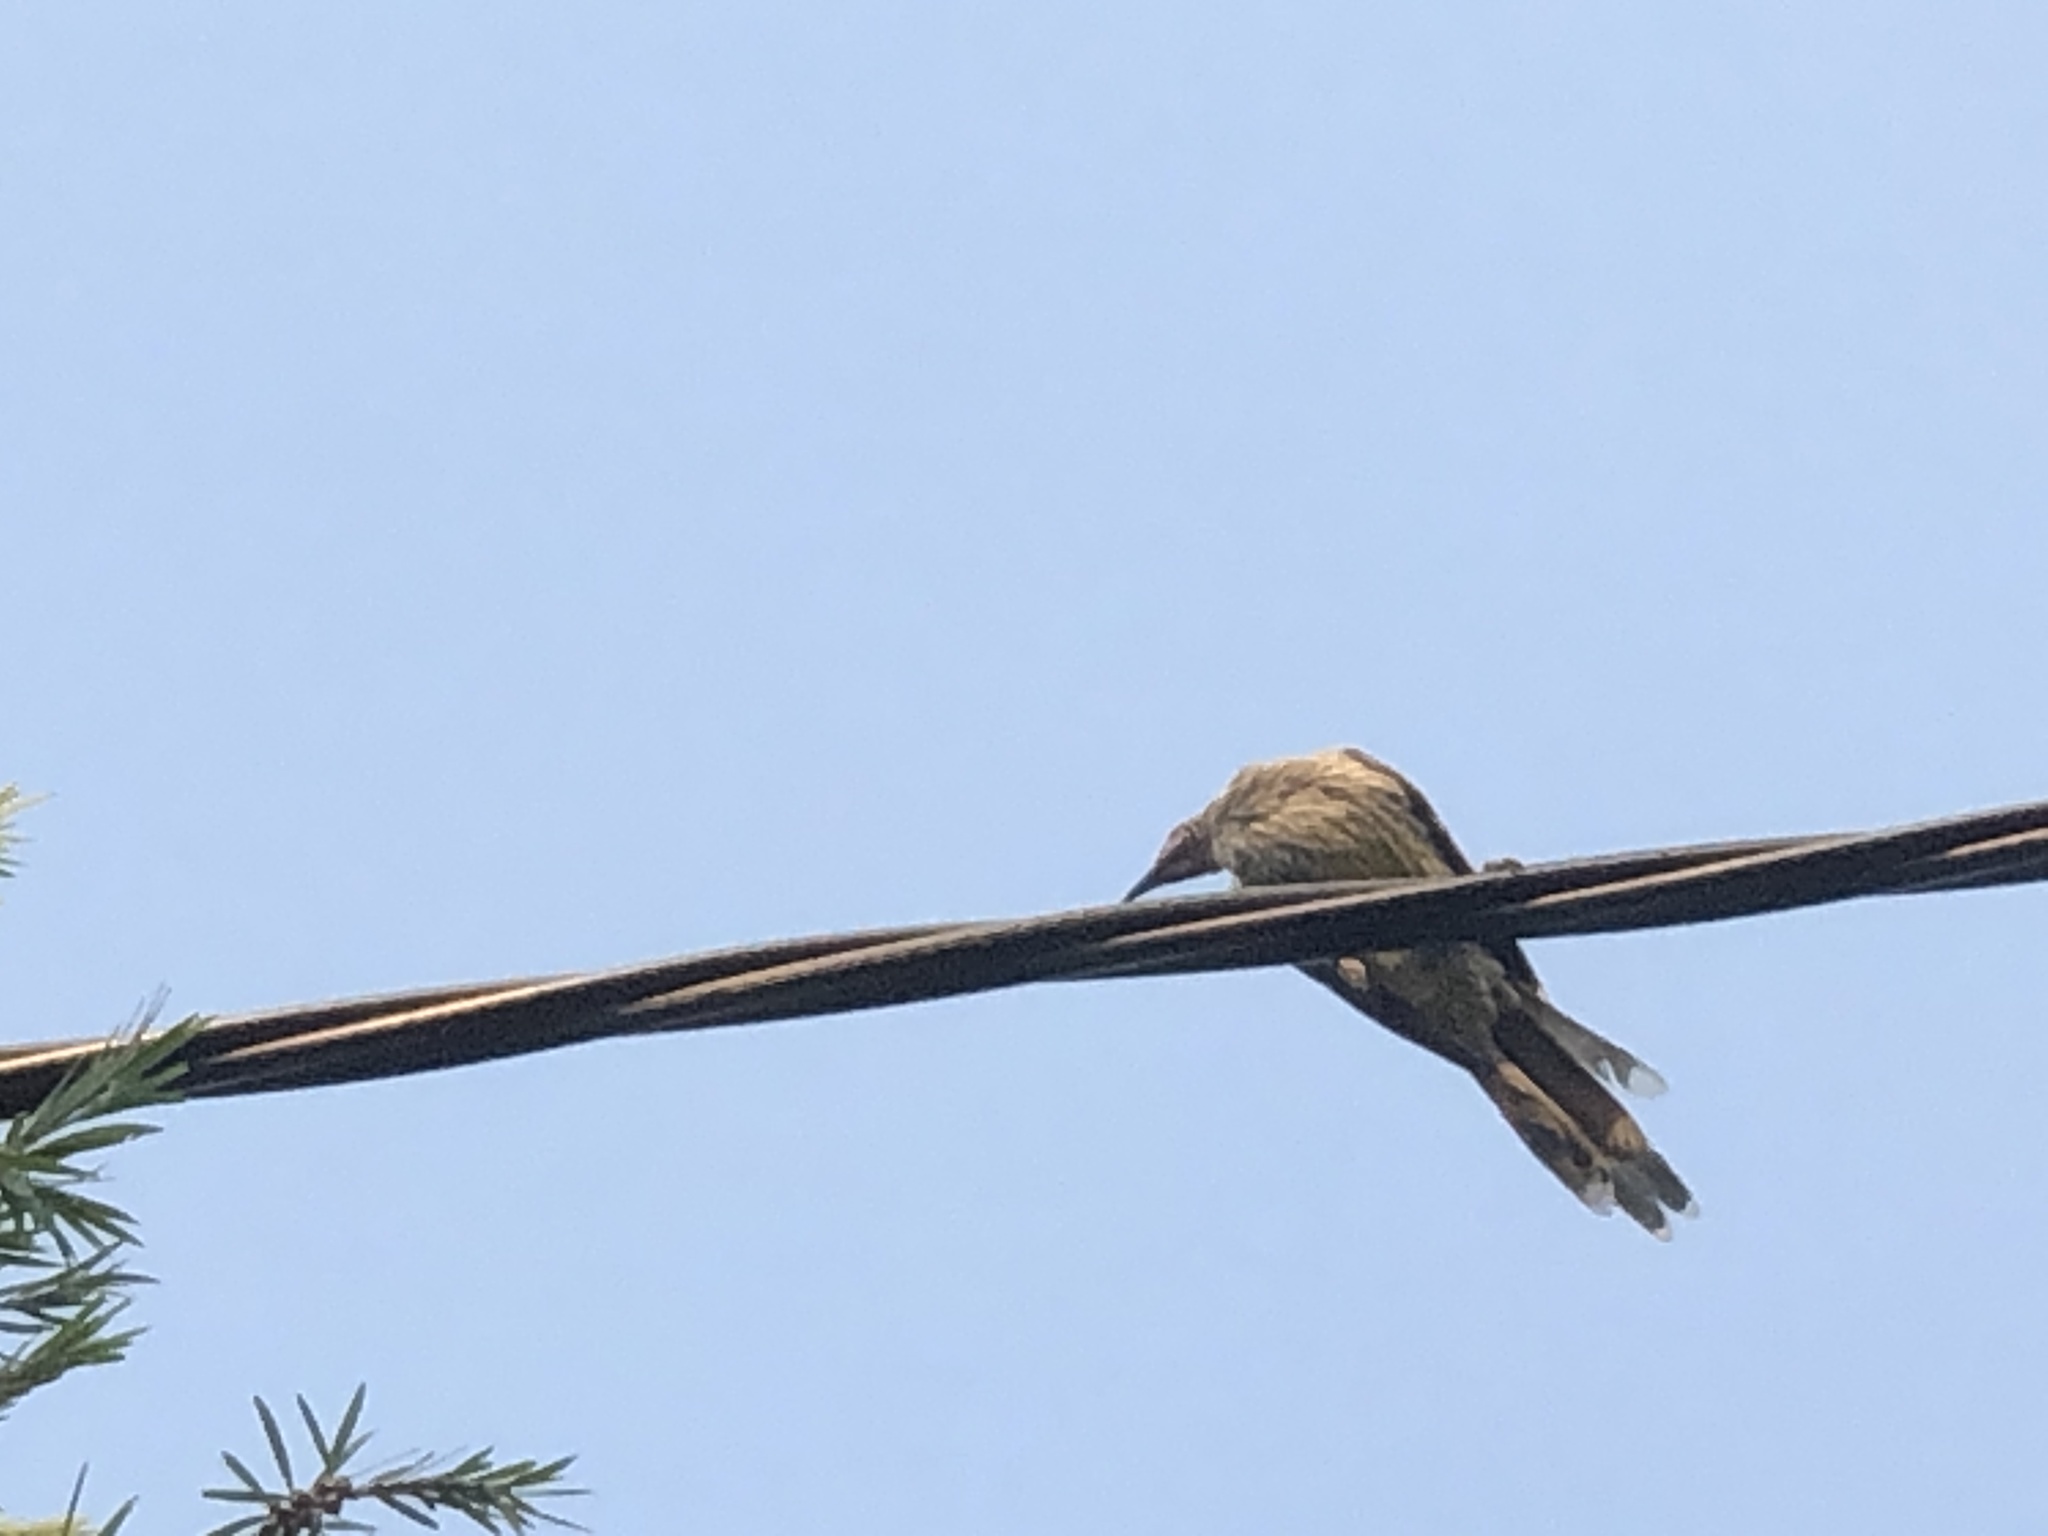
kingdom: Animalia
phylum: Chordata
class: Aves
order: Passeriformes
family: Meliphagidae
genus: Anthochaera
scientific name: Anthochaera chrysoptera
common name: Little wattlebird
